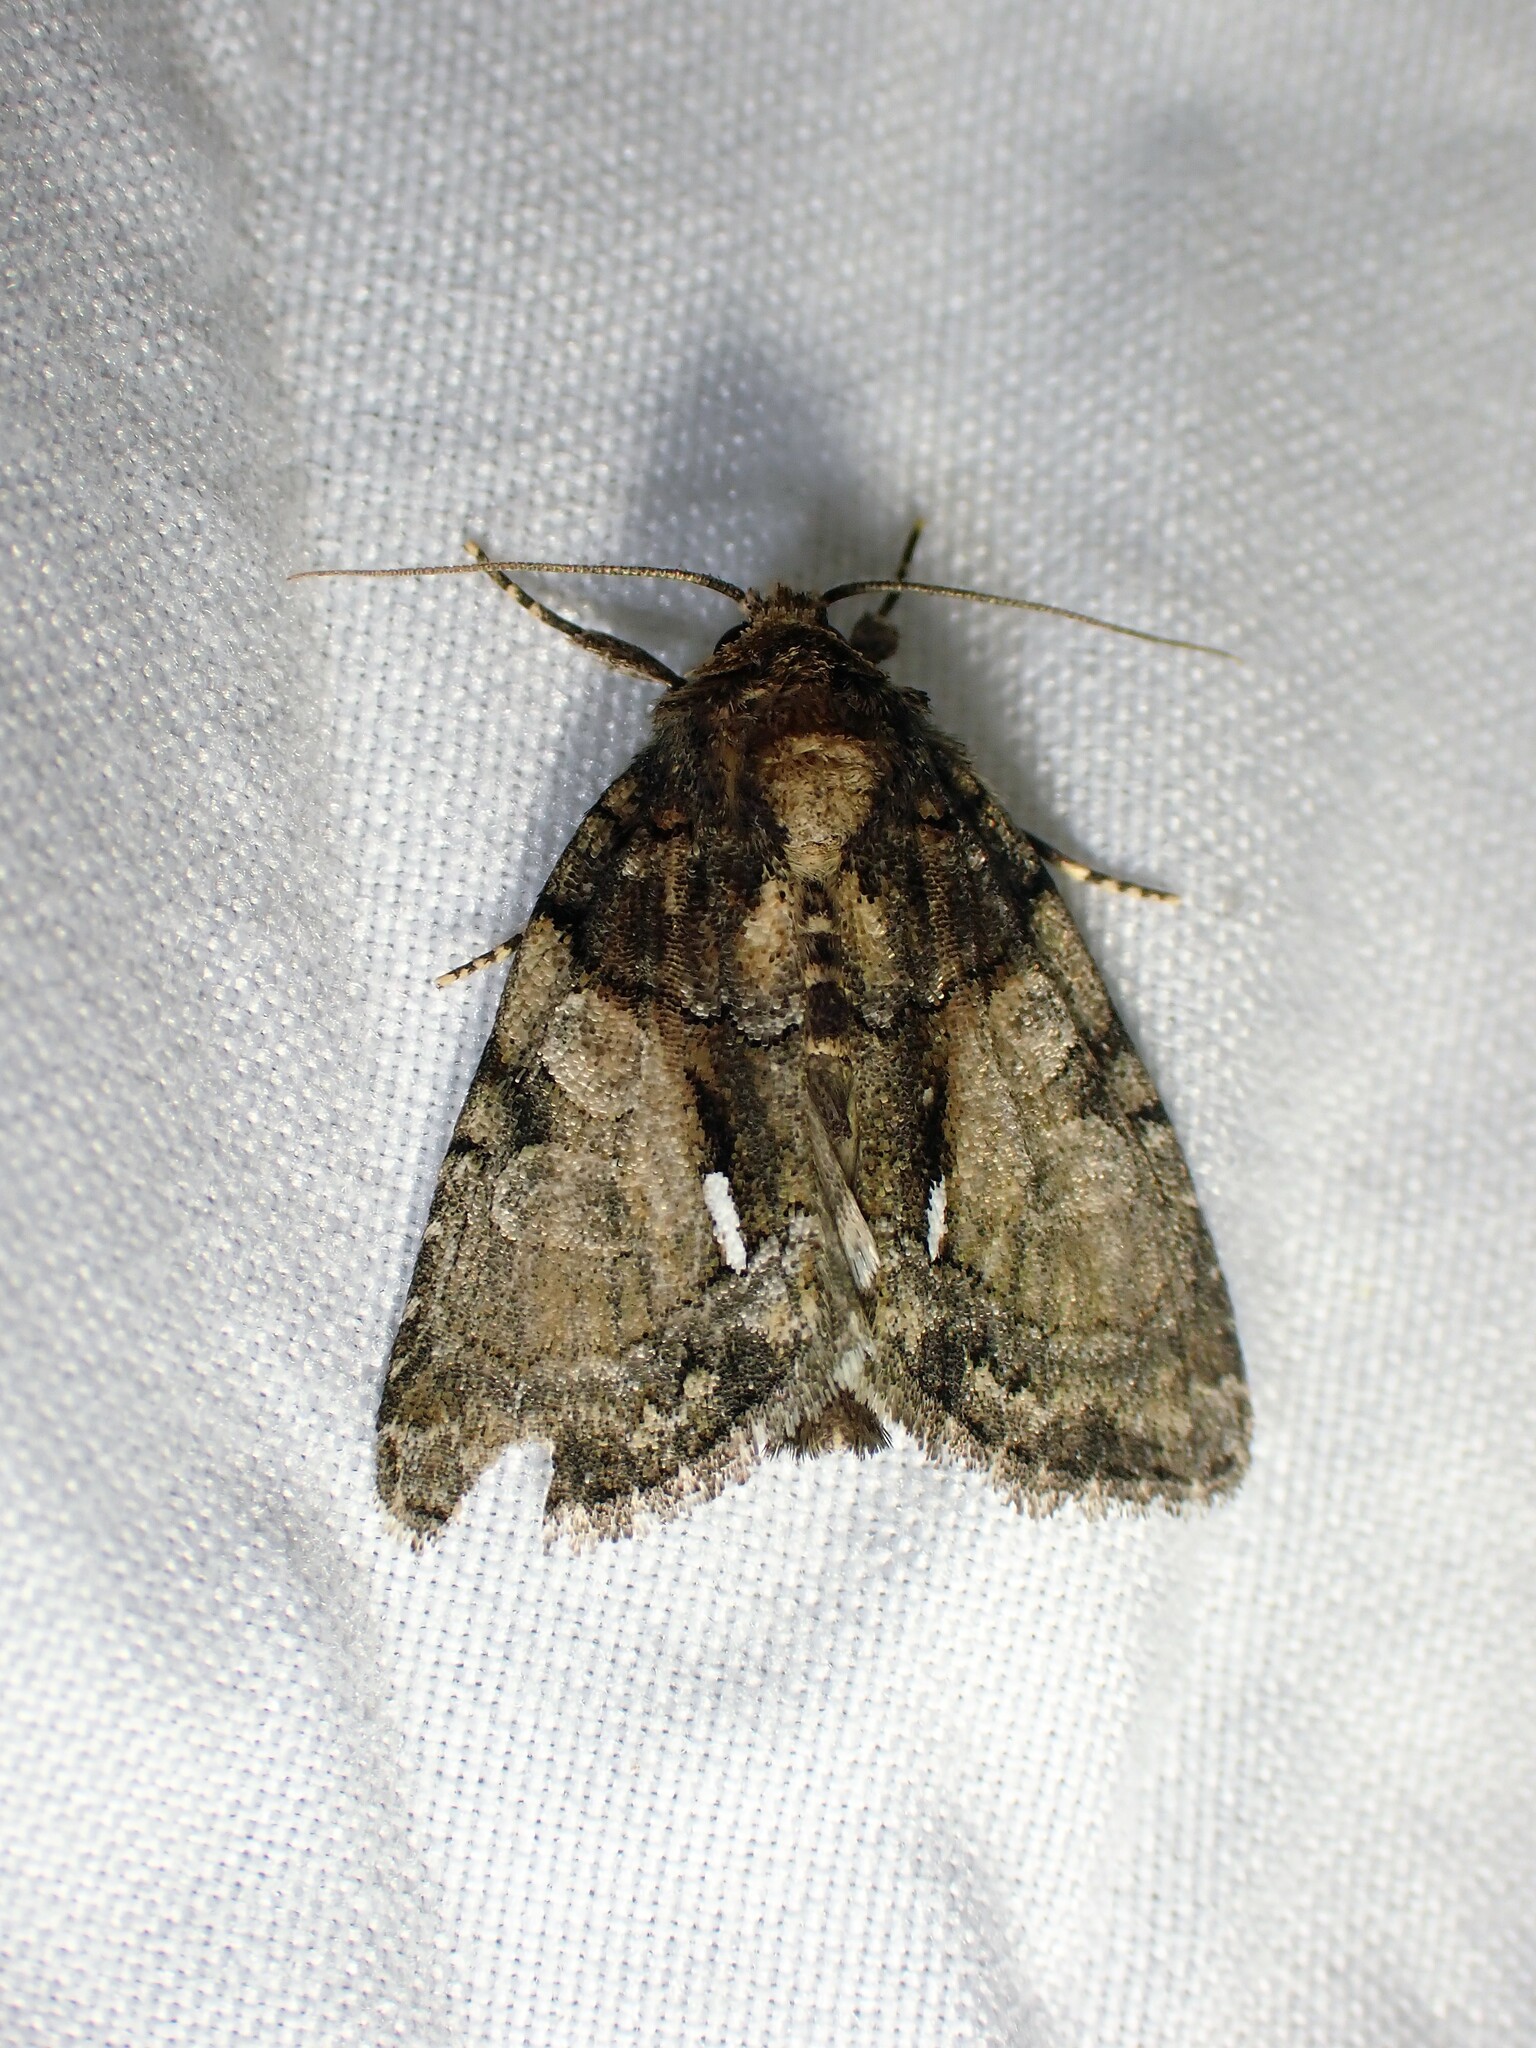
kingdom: Animalia
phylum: Arthropoda
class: Insecta
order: Lepidoptera
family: Noctuidae
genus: Chytonix
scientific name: Chytonix palliatricula
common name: Cloaked marvel
